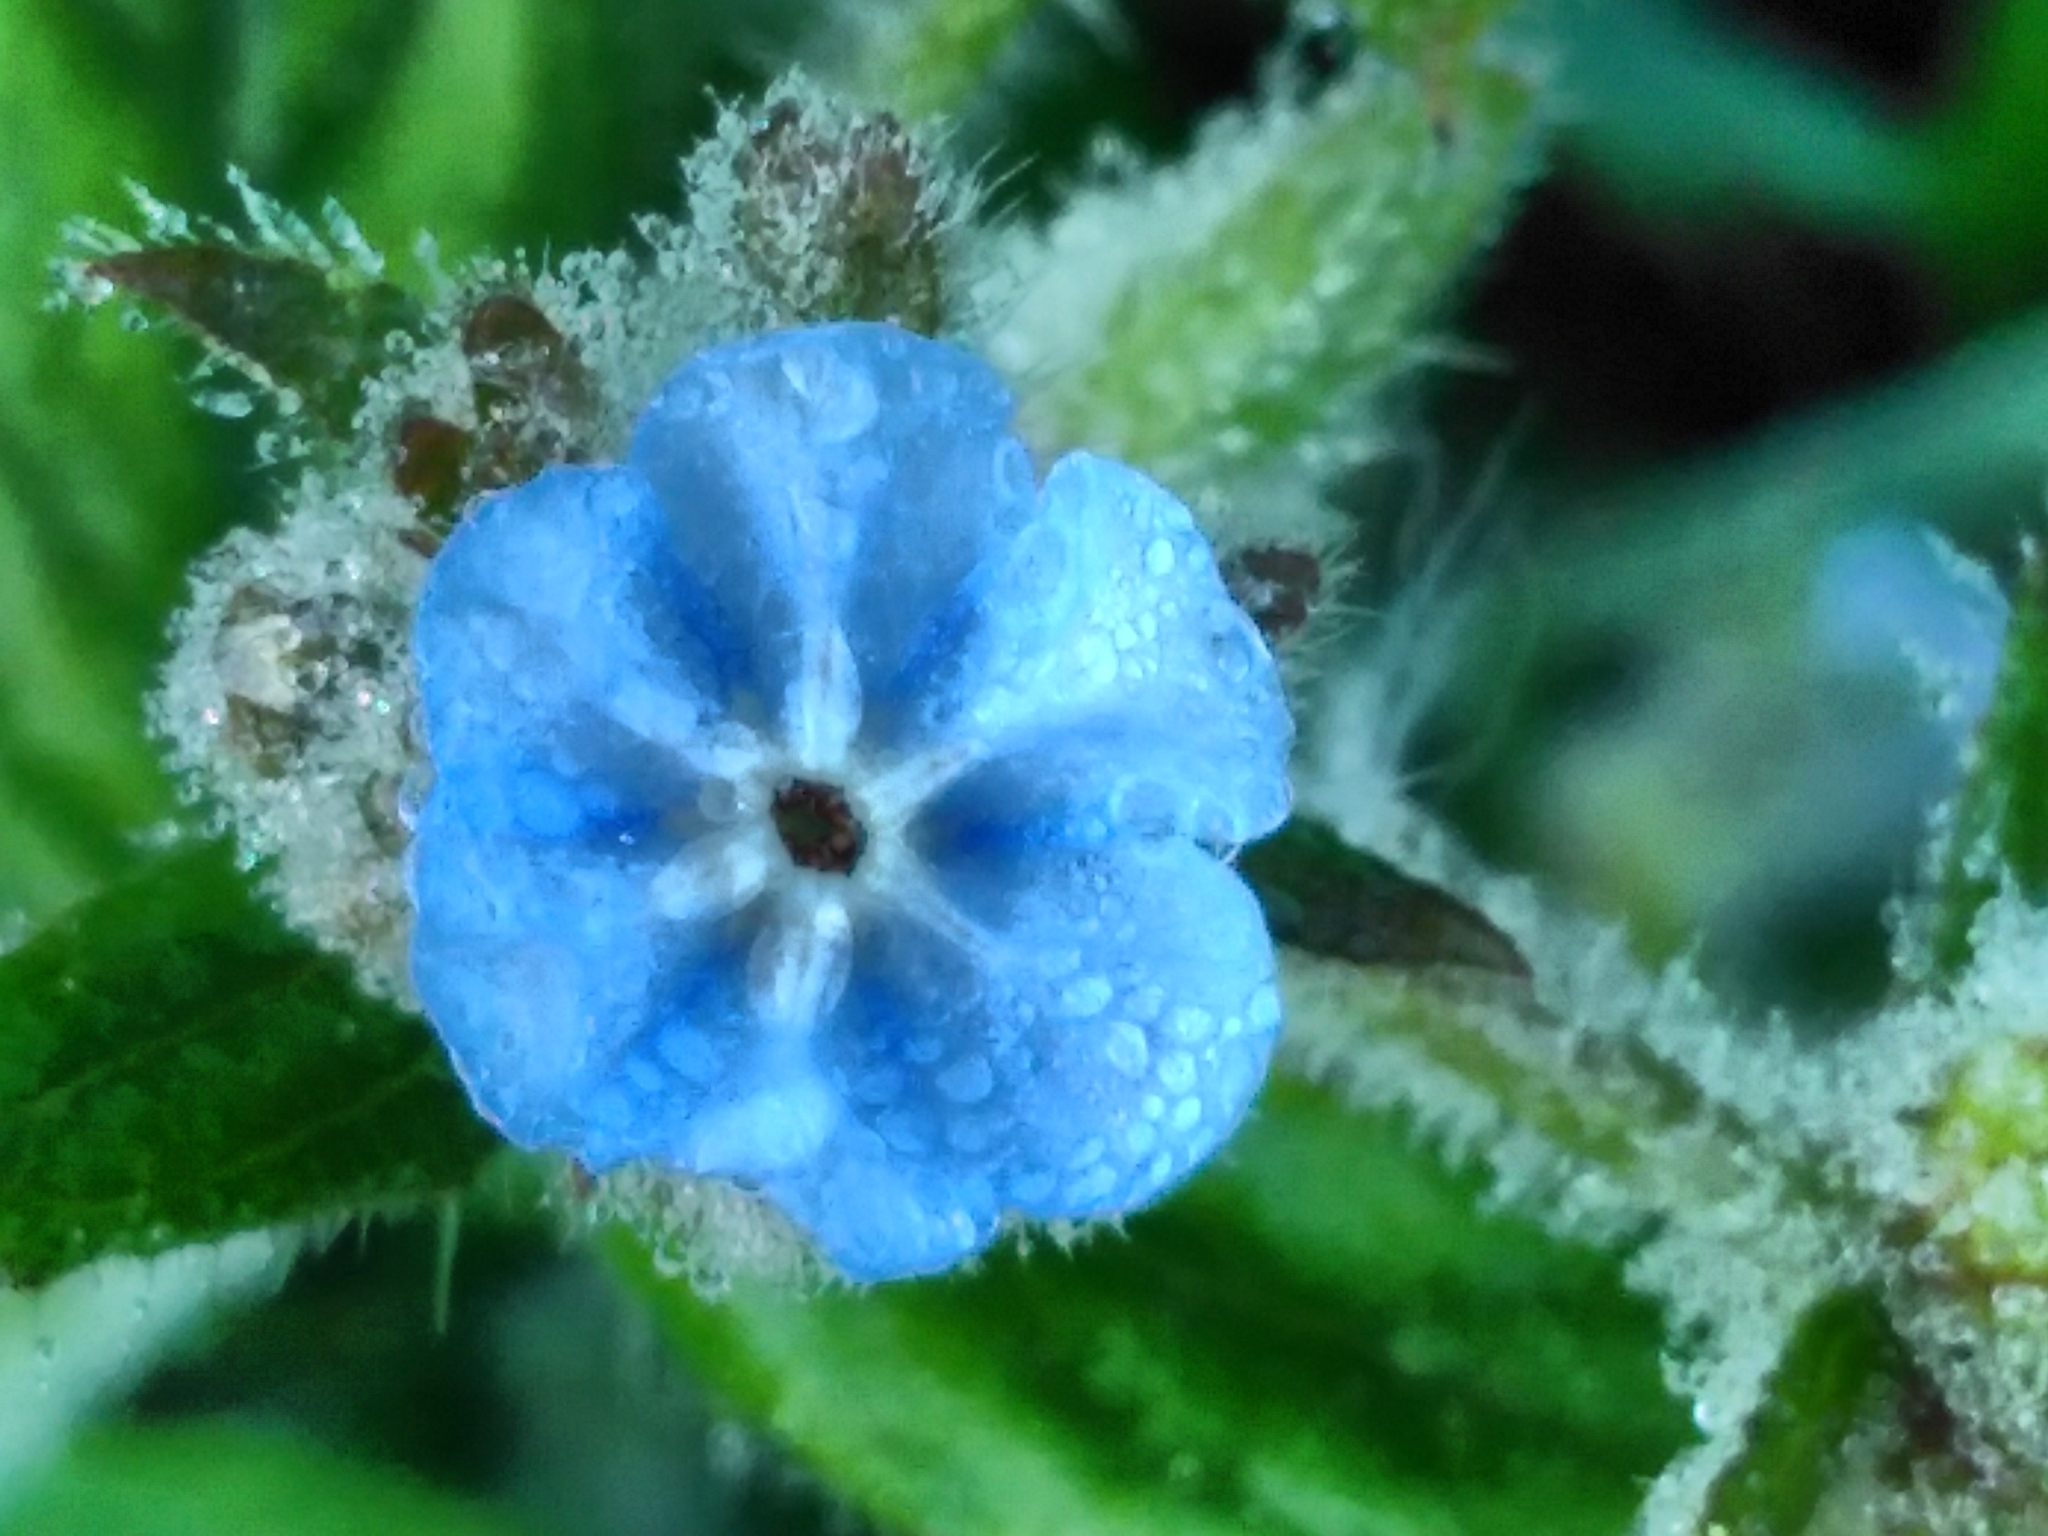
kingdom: Plantae
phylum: Tracheophyta
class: Magnoliopsida
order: Boraginales
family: Boraginaceae
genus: Pentaglottis
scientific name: Pentaglottis sempervirens
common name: Green alkanet
